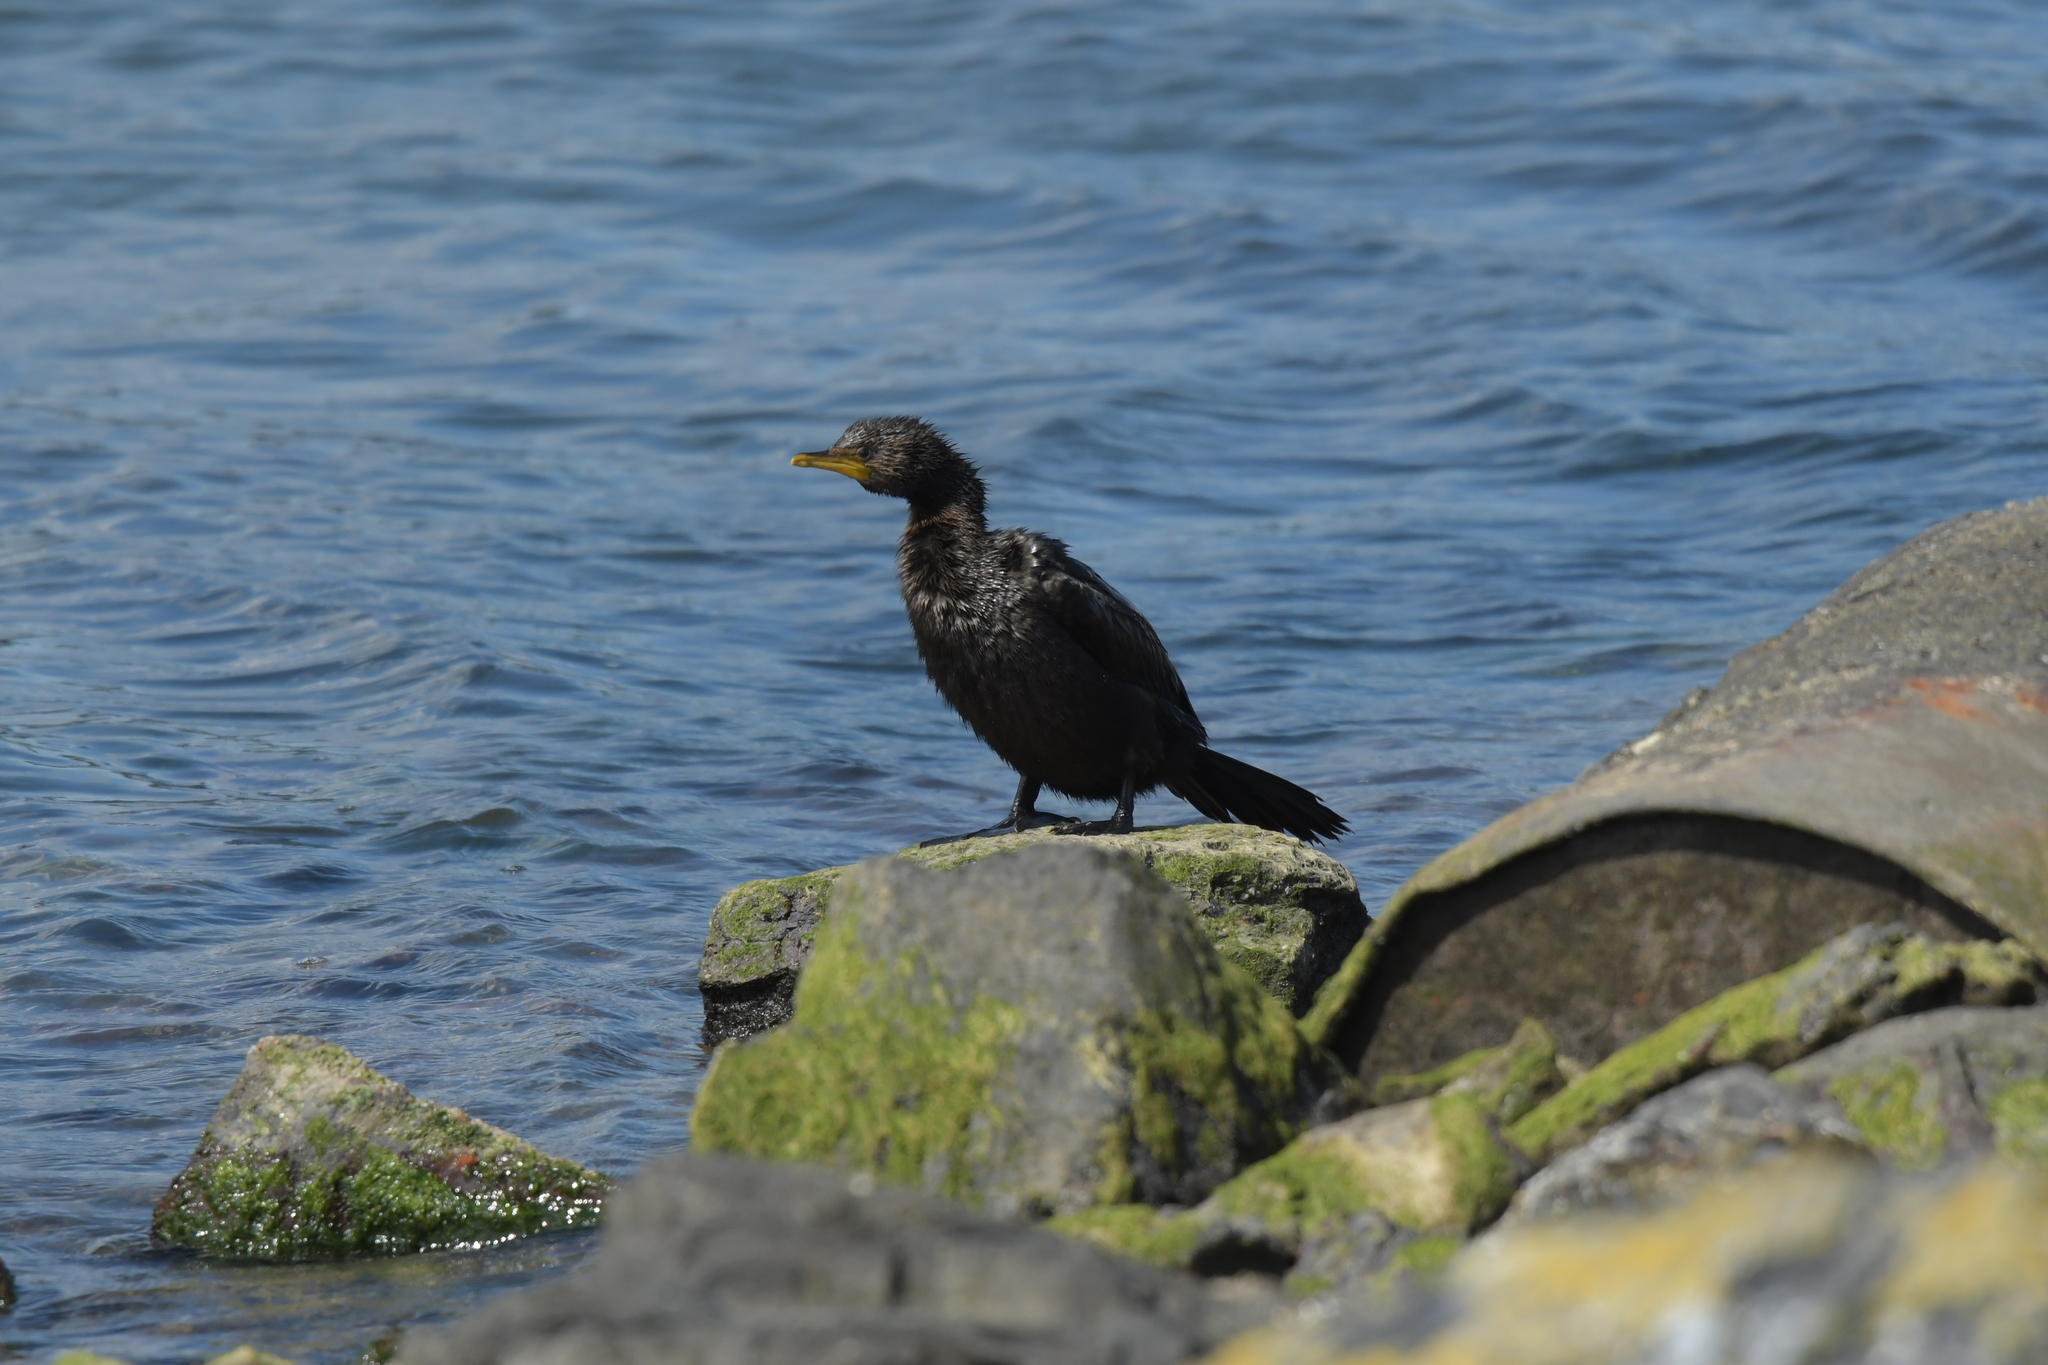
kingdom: Animalia
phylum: Chordata
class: Aves
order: Suliformes
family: Phalacrocoracidae
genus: Microcarbo
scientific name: Microcarbo melanoleucos
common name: Little pied cormorant
